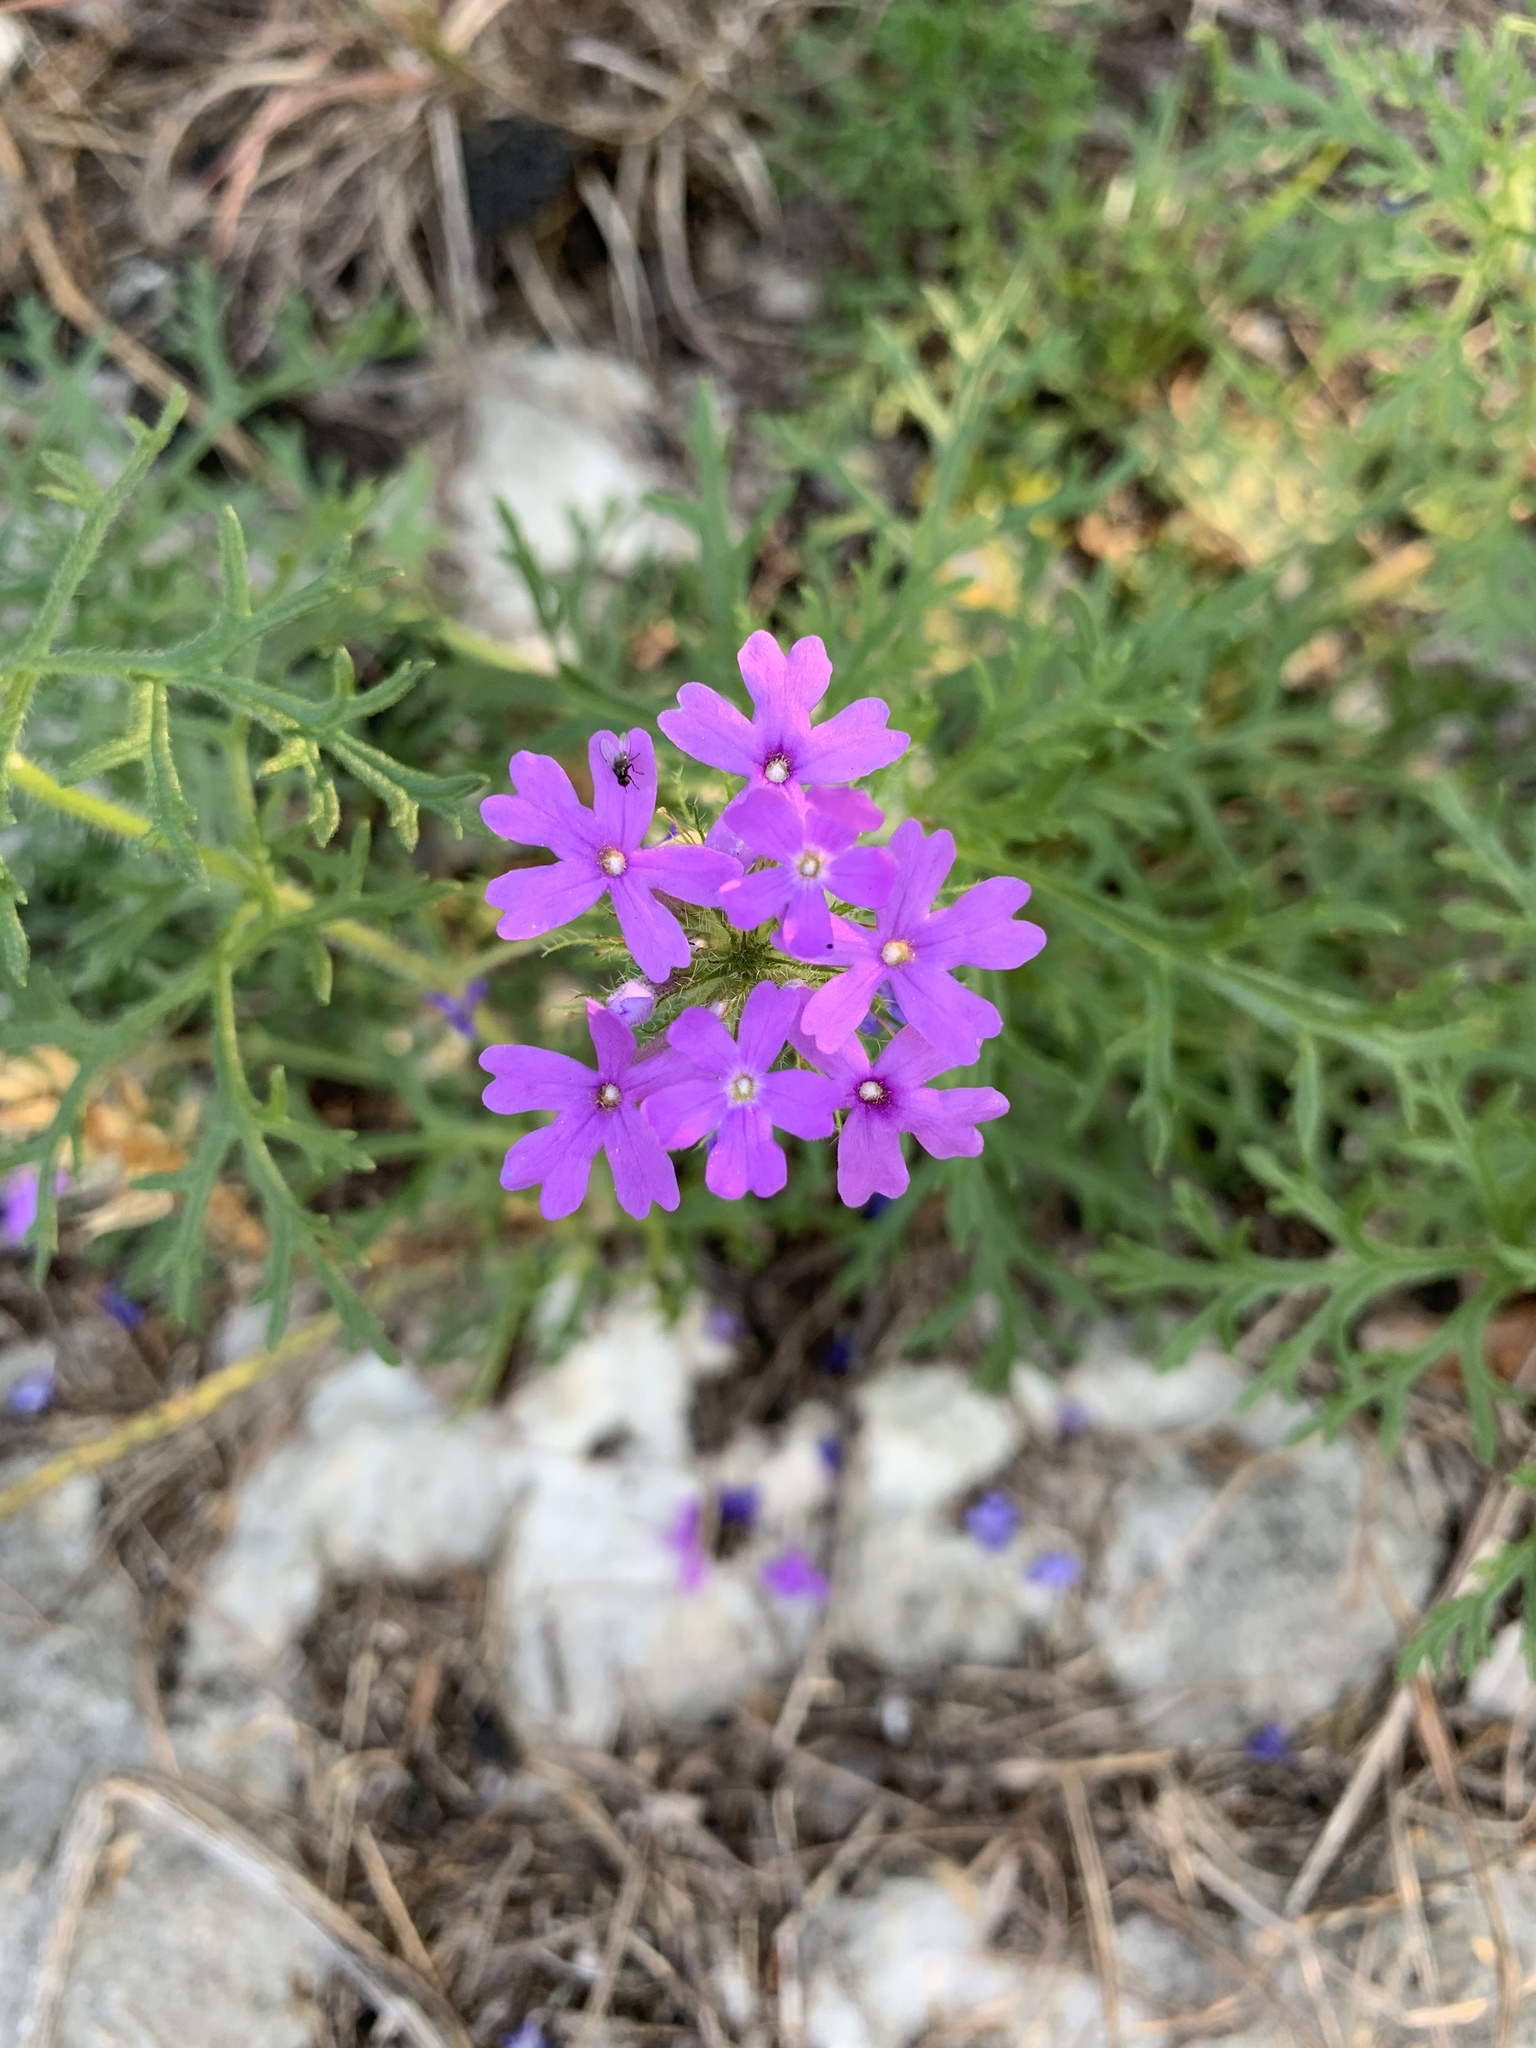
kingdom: Plantae
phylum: Tracheophyta
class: Magnoliopsida
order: Lamiales
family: Verbenaceae
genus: Verbena
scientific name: Verbena bipinnatifida
